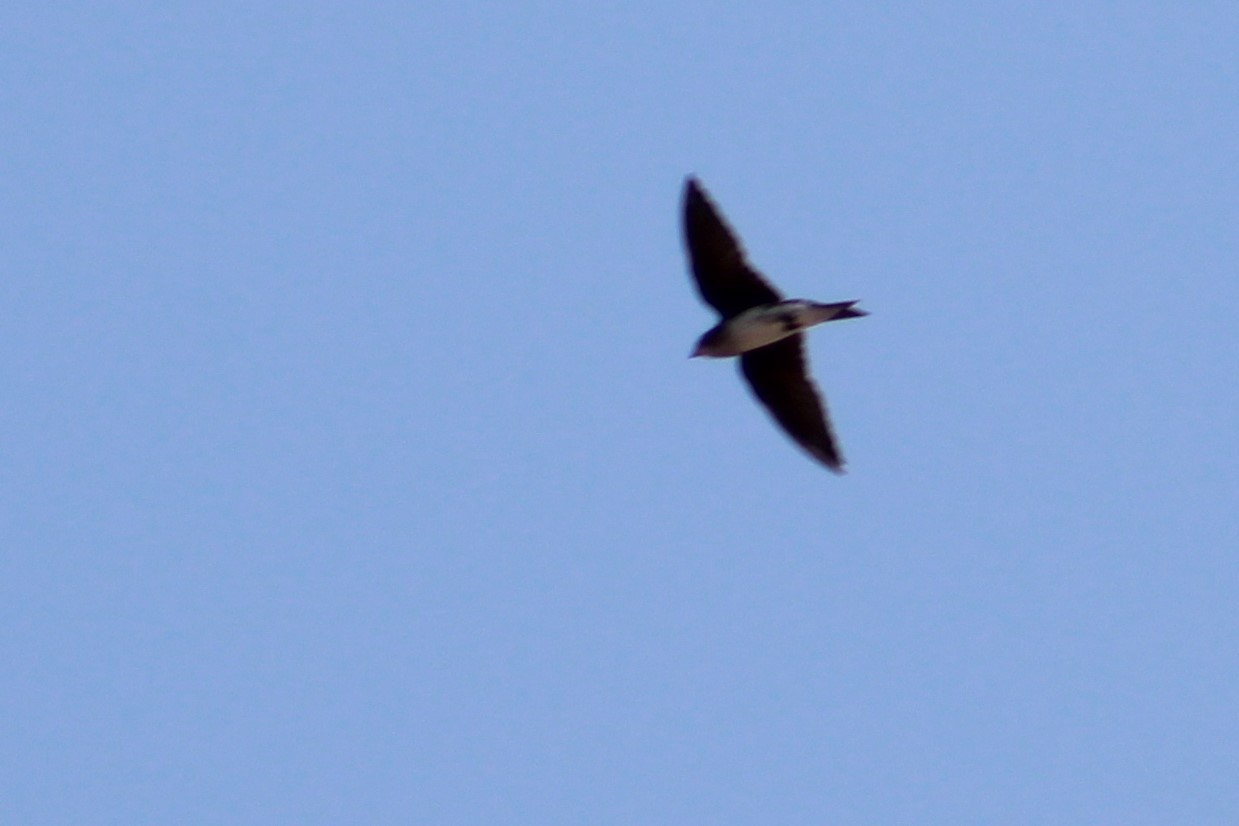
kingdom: Animalia
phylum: Chordata
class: Aves
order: Passeriformes
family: Hirundinidae
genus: Progne
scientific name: Progne chalybea
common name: Grey-breasted martin
